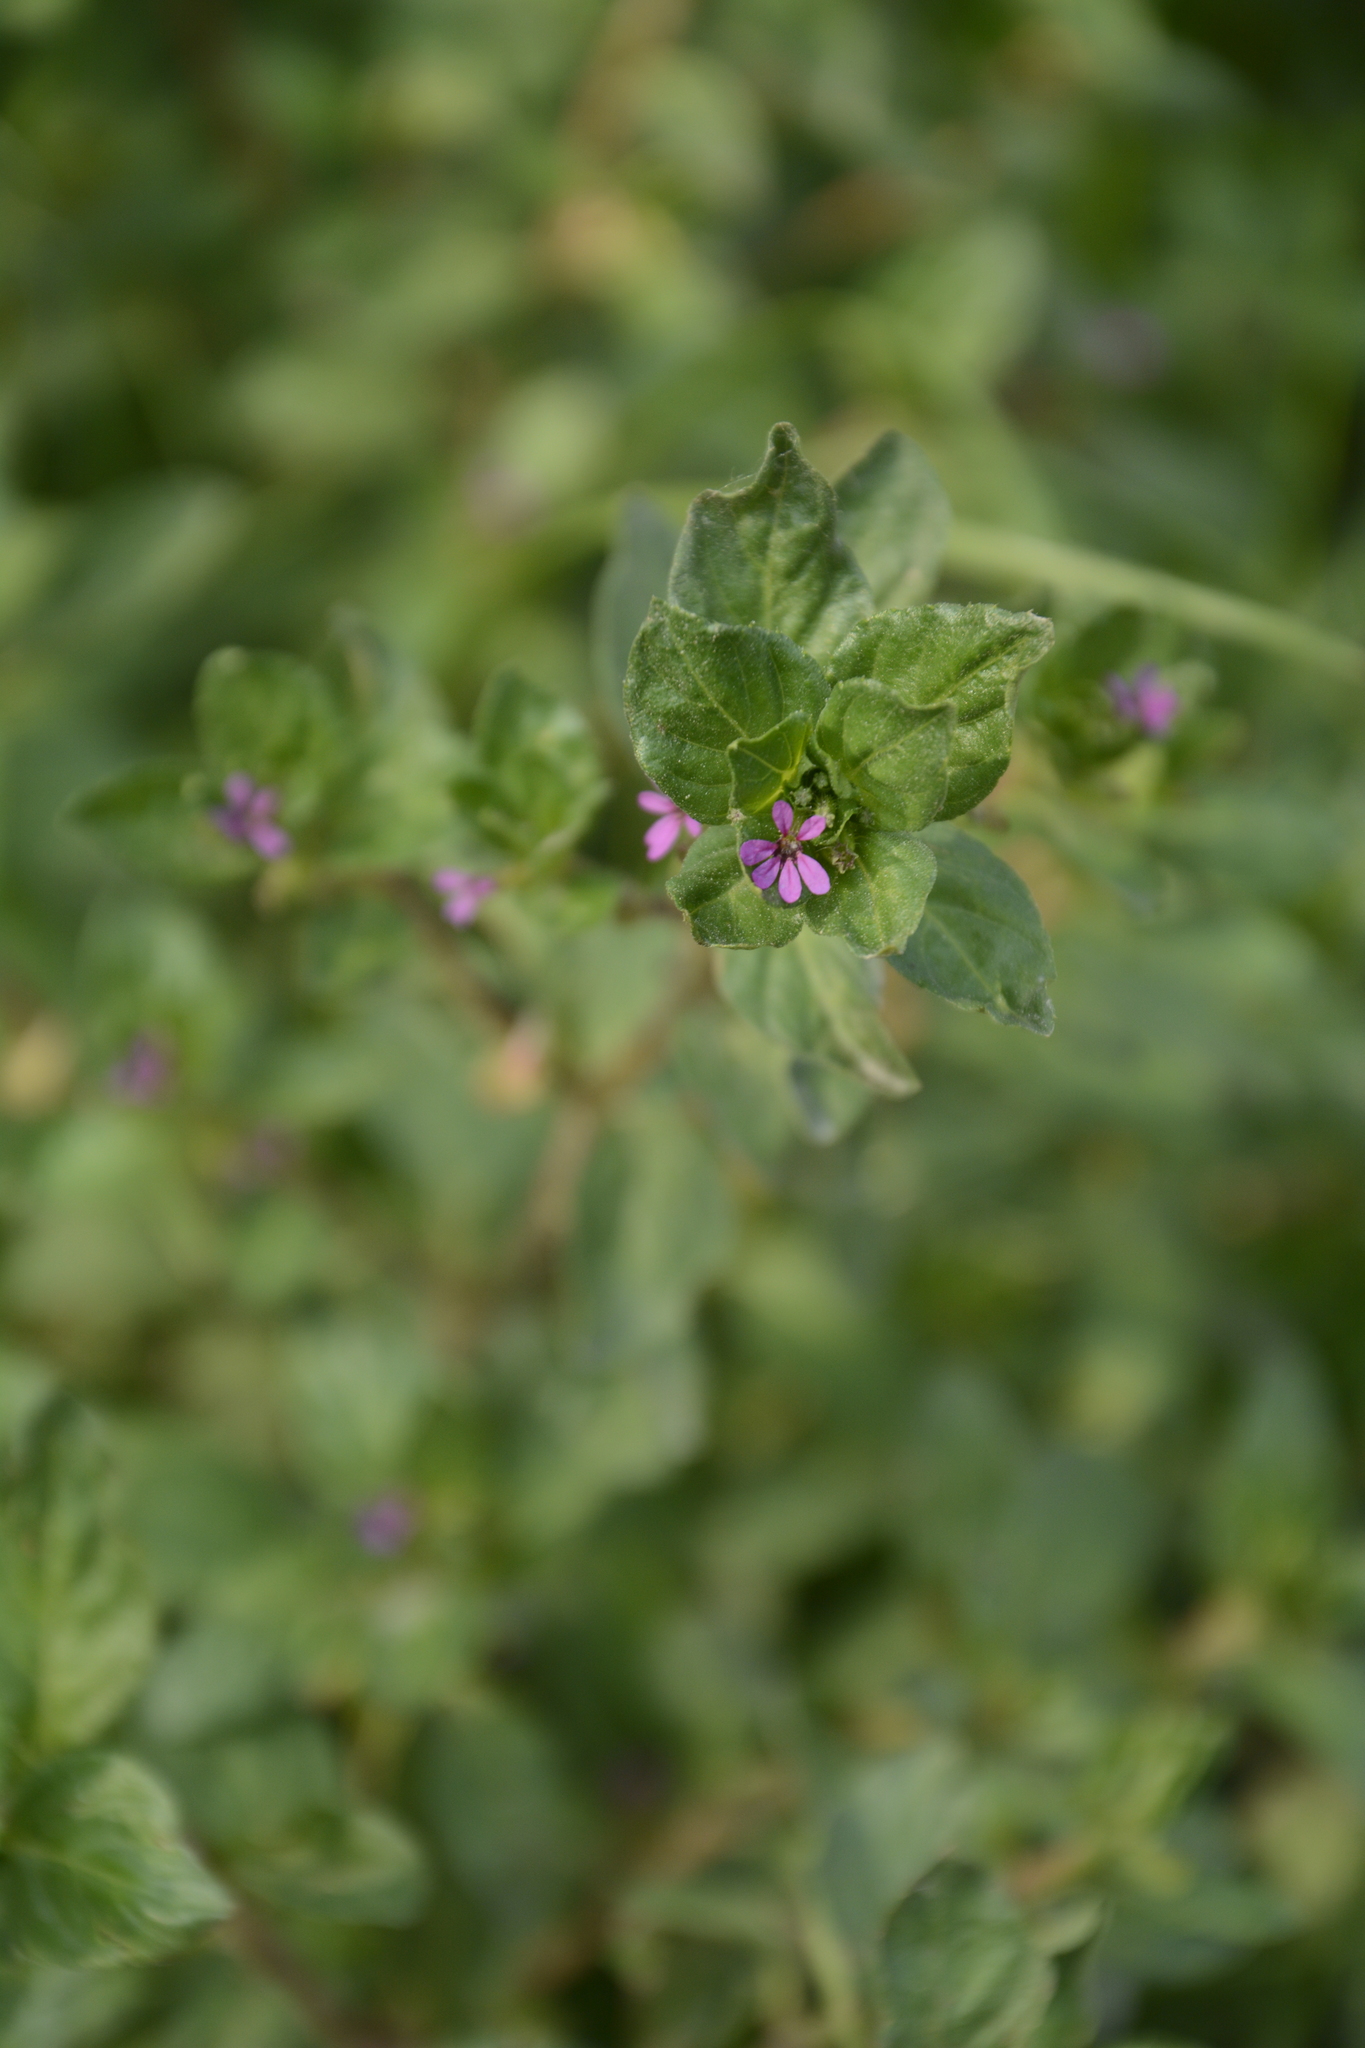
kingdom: Plantae
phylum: Tracheophyta
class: Magnoliopsida
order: Myrtales
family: Lythraceae
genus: Cuphea
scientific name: Cuphea carthagenensis
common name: Colombian waxweed
